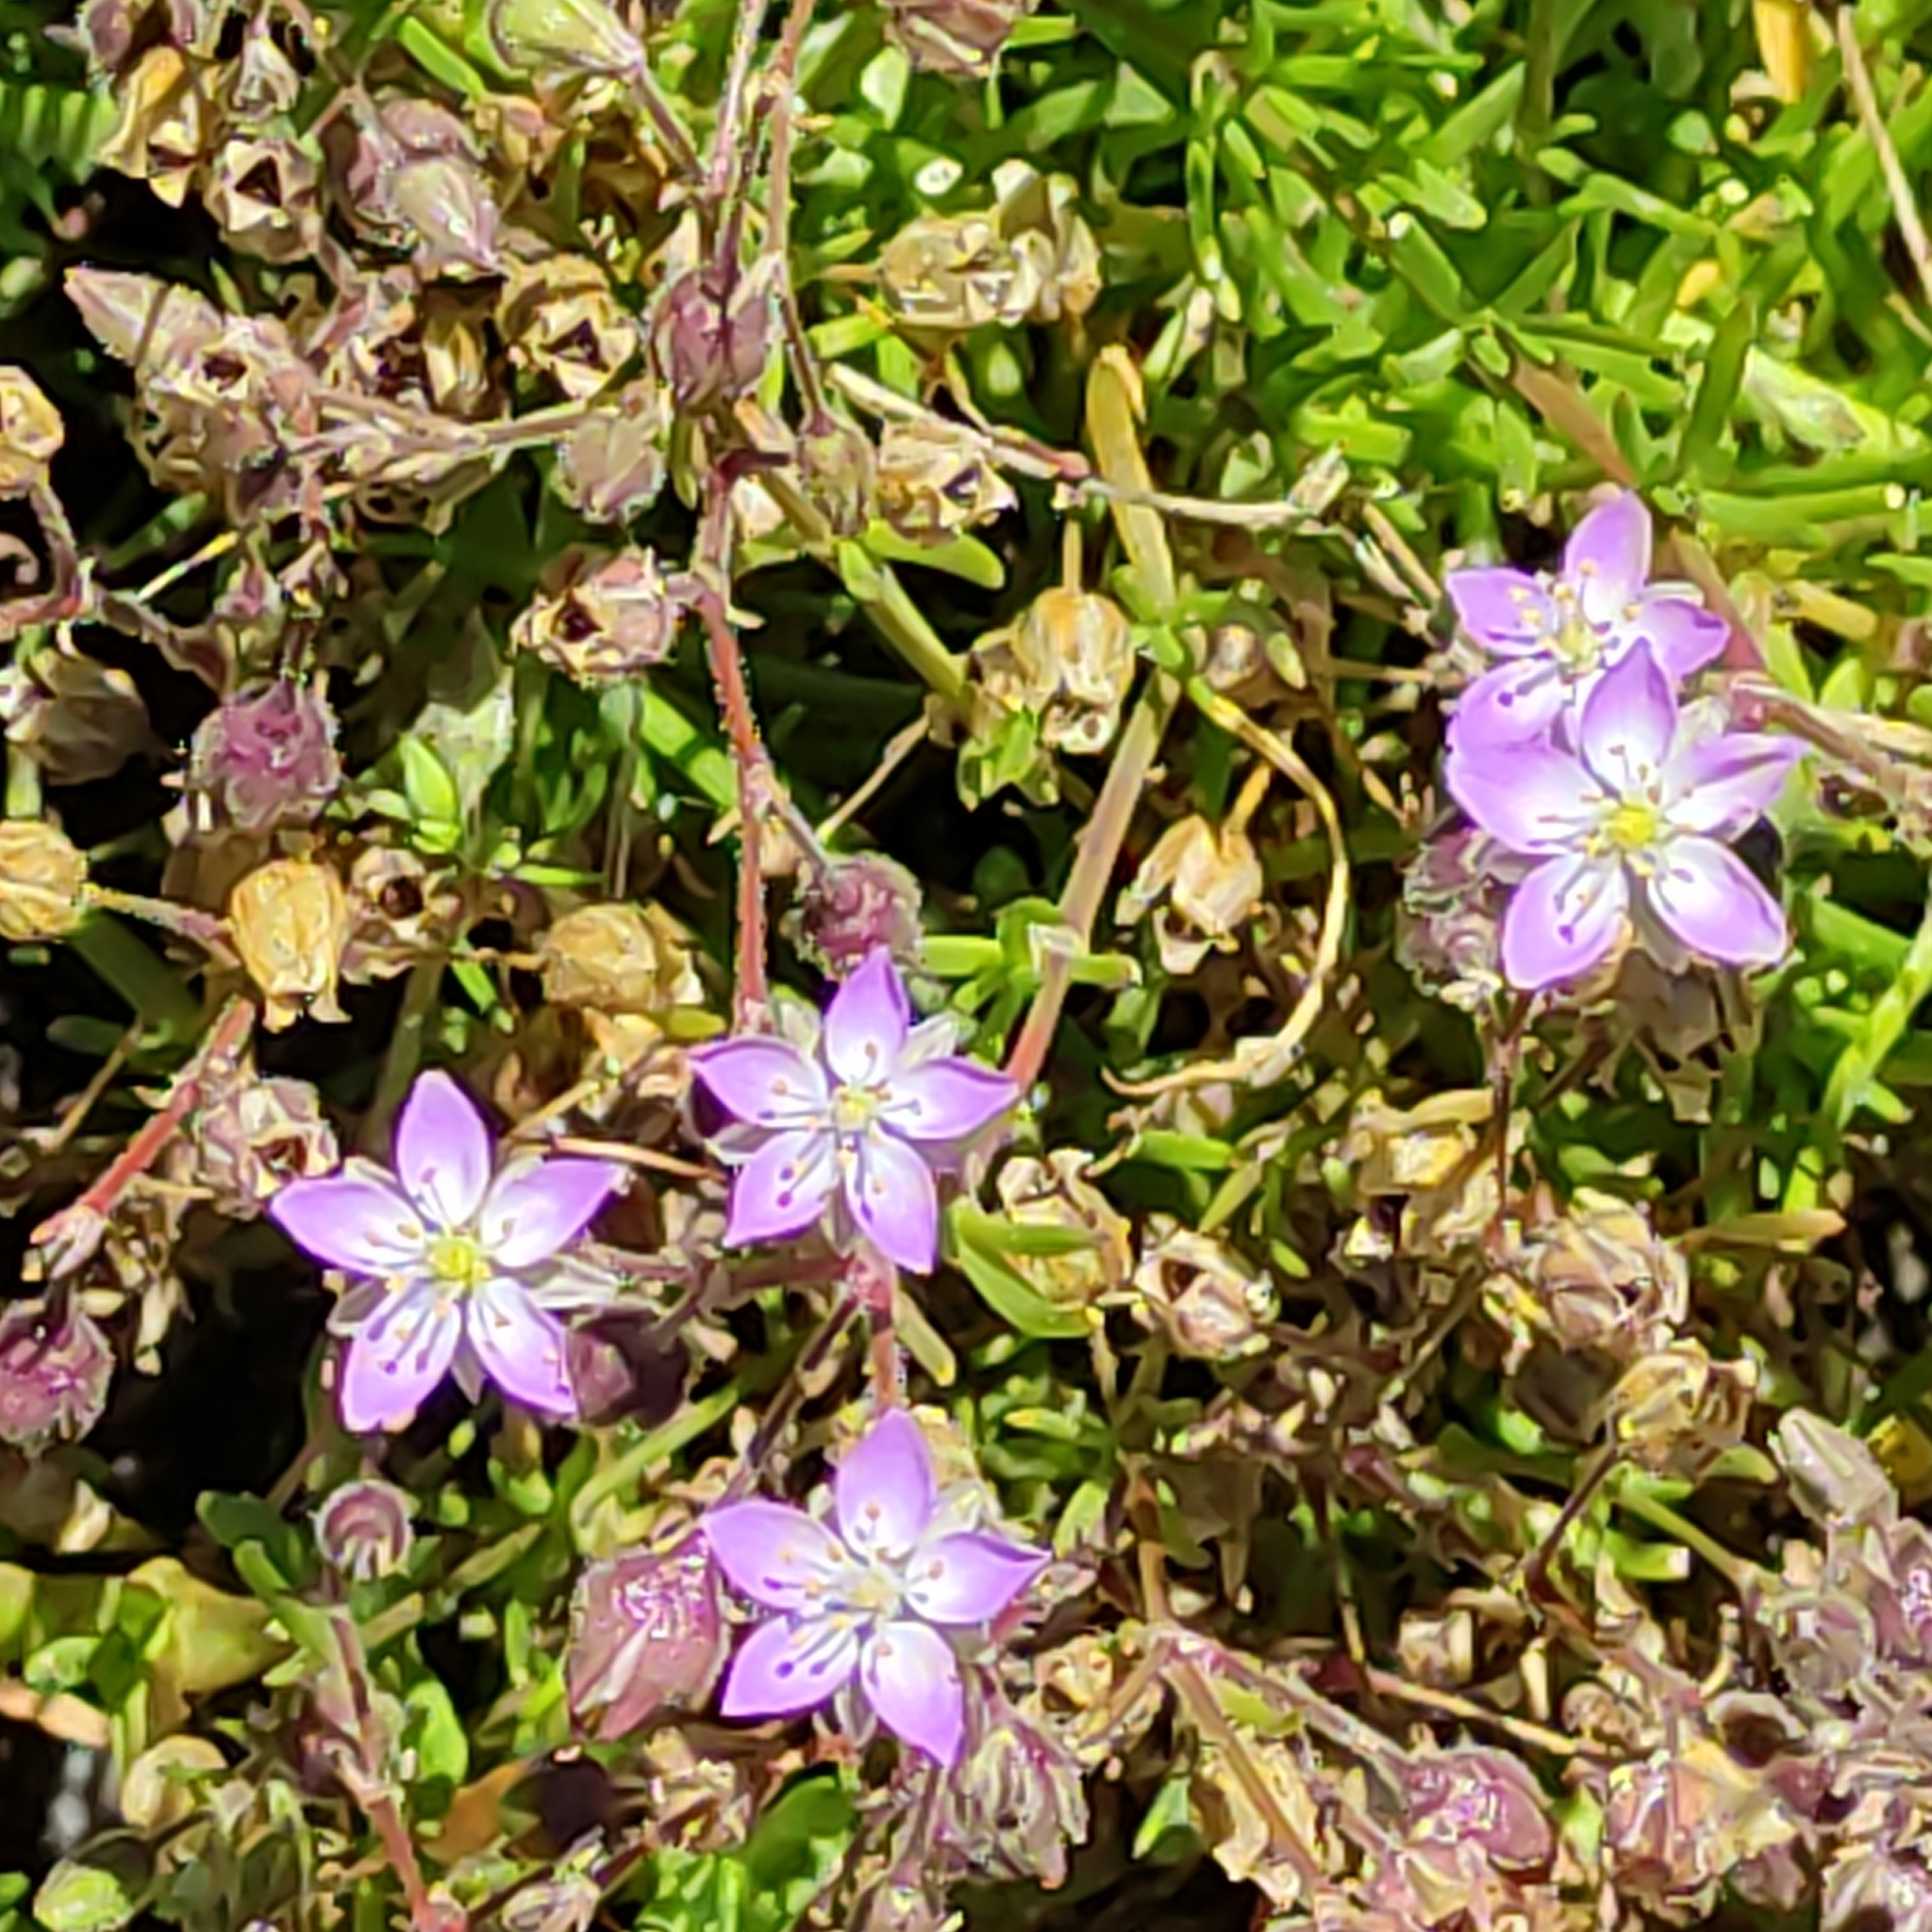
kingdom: Plantae
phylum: Tracheophyta
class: Magnoliopsida
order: Caryophyllales
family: Caryophyllaceae
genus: Spergularia
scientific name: Spergularia rubra
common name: Red sand-spurrey
